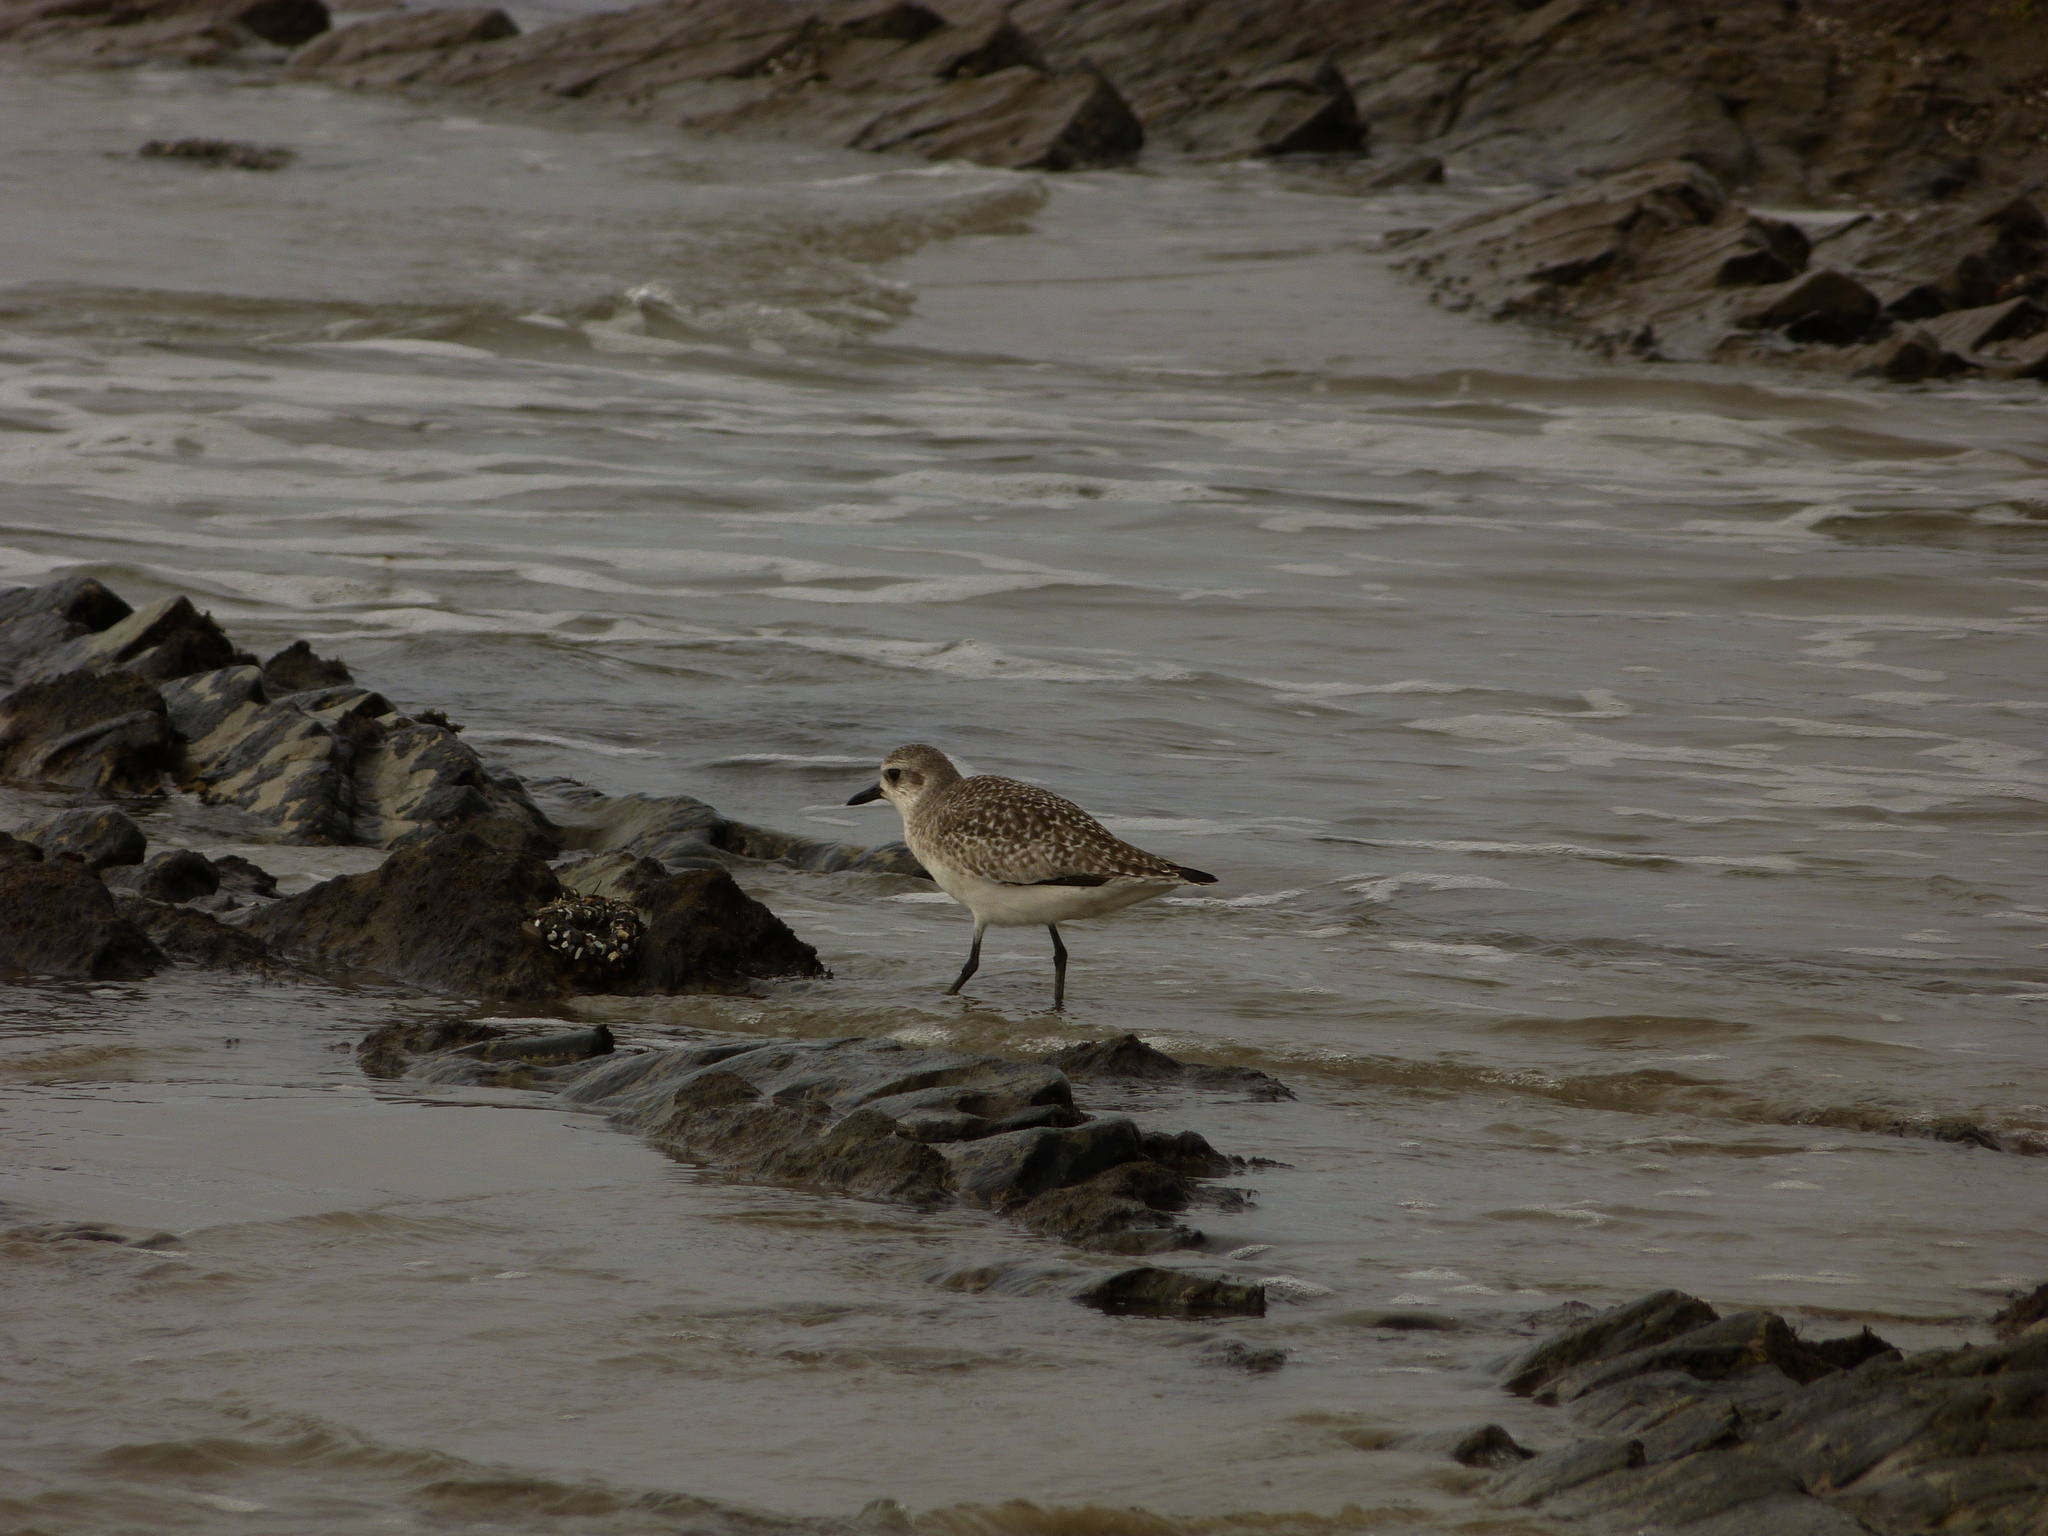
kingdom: Animalia
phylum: Chordata
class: Aves
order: Charadriiformes
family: Charadriidae
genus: Pluvialis
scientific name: Pluvialis squatarola
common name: Grey plover
